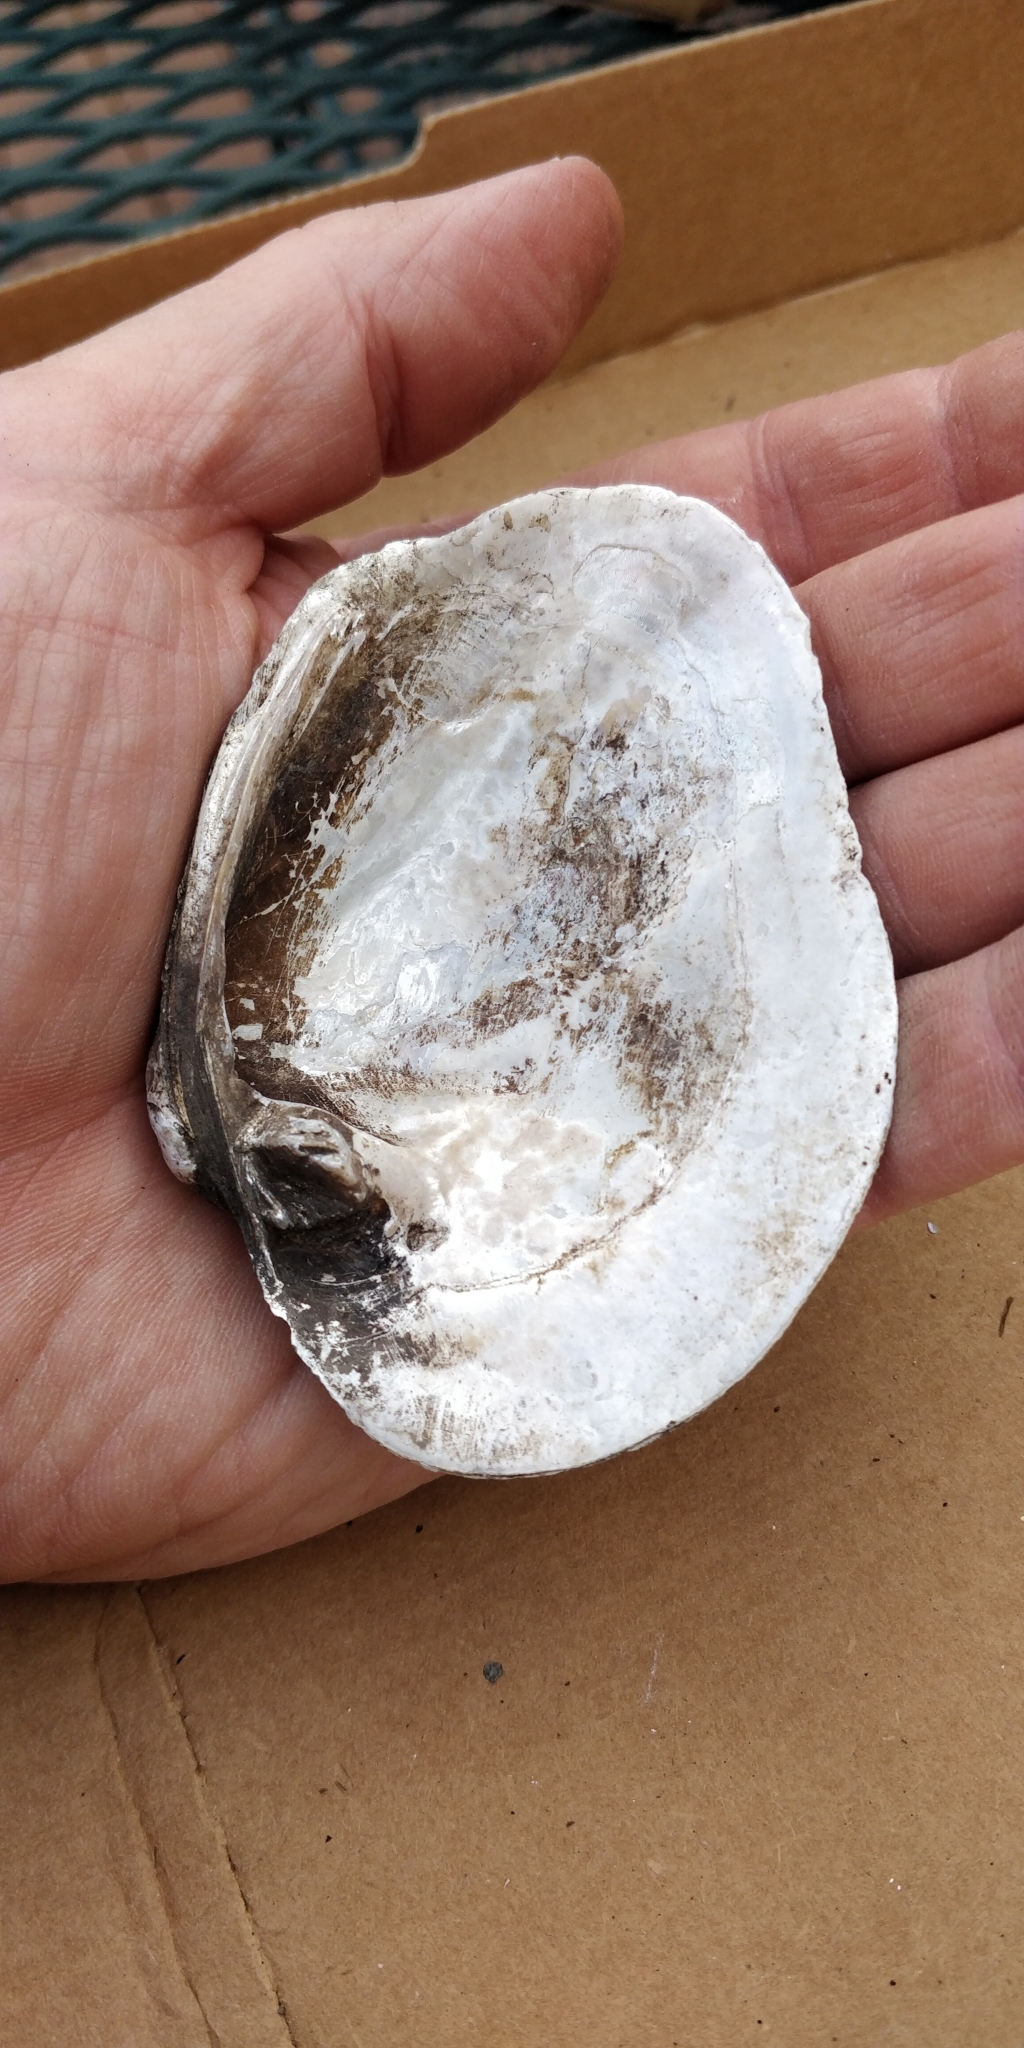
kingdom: Animalia
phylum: Mollusca
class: Bivalvia
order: Unionida
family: Unionidae
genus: Quadrula
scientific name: Quadrula quadrula
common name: Mapleleaf
